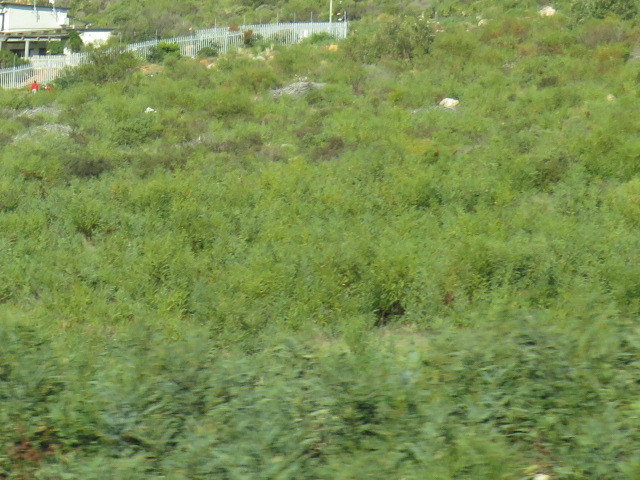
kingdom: Plantae
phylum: Tracheophyta
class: Magnoliopsida
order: Fabales
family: Fabaceae
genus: Acacia
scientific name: Acacia saligna
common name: Orange wattle
